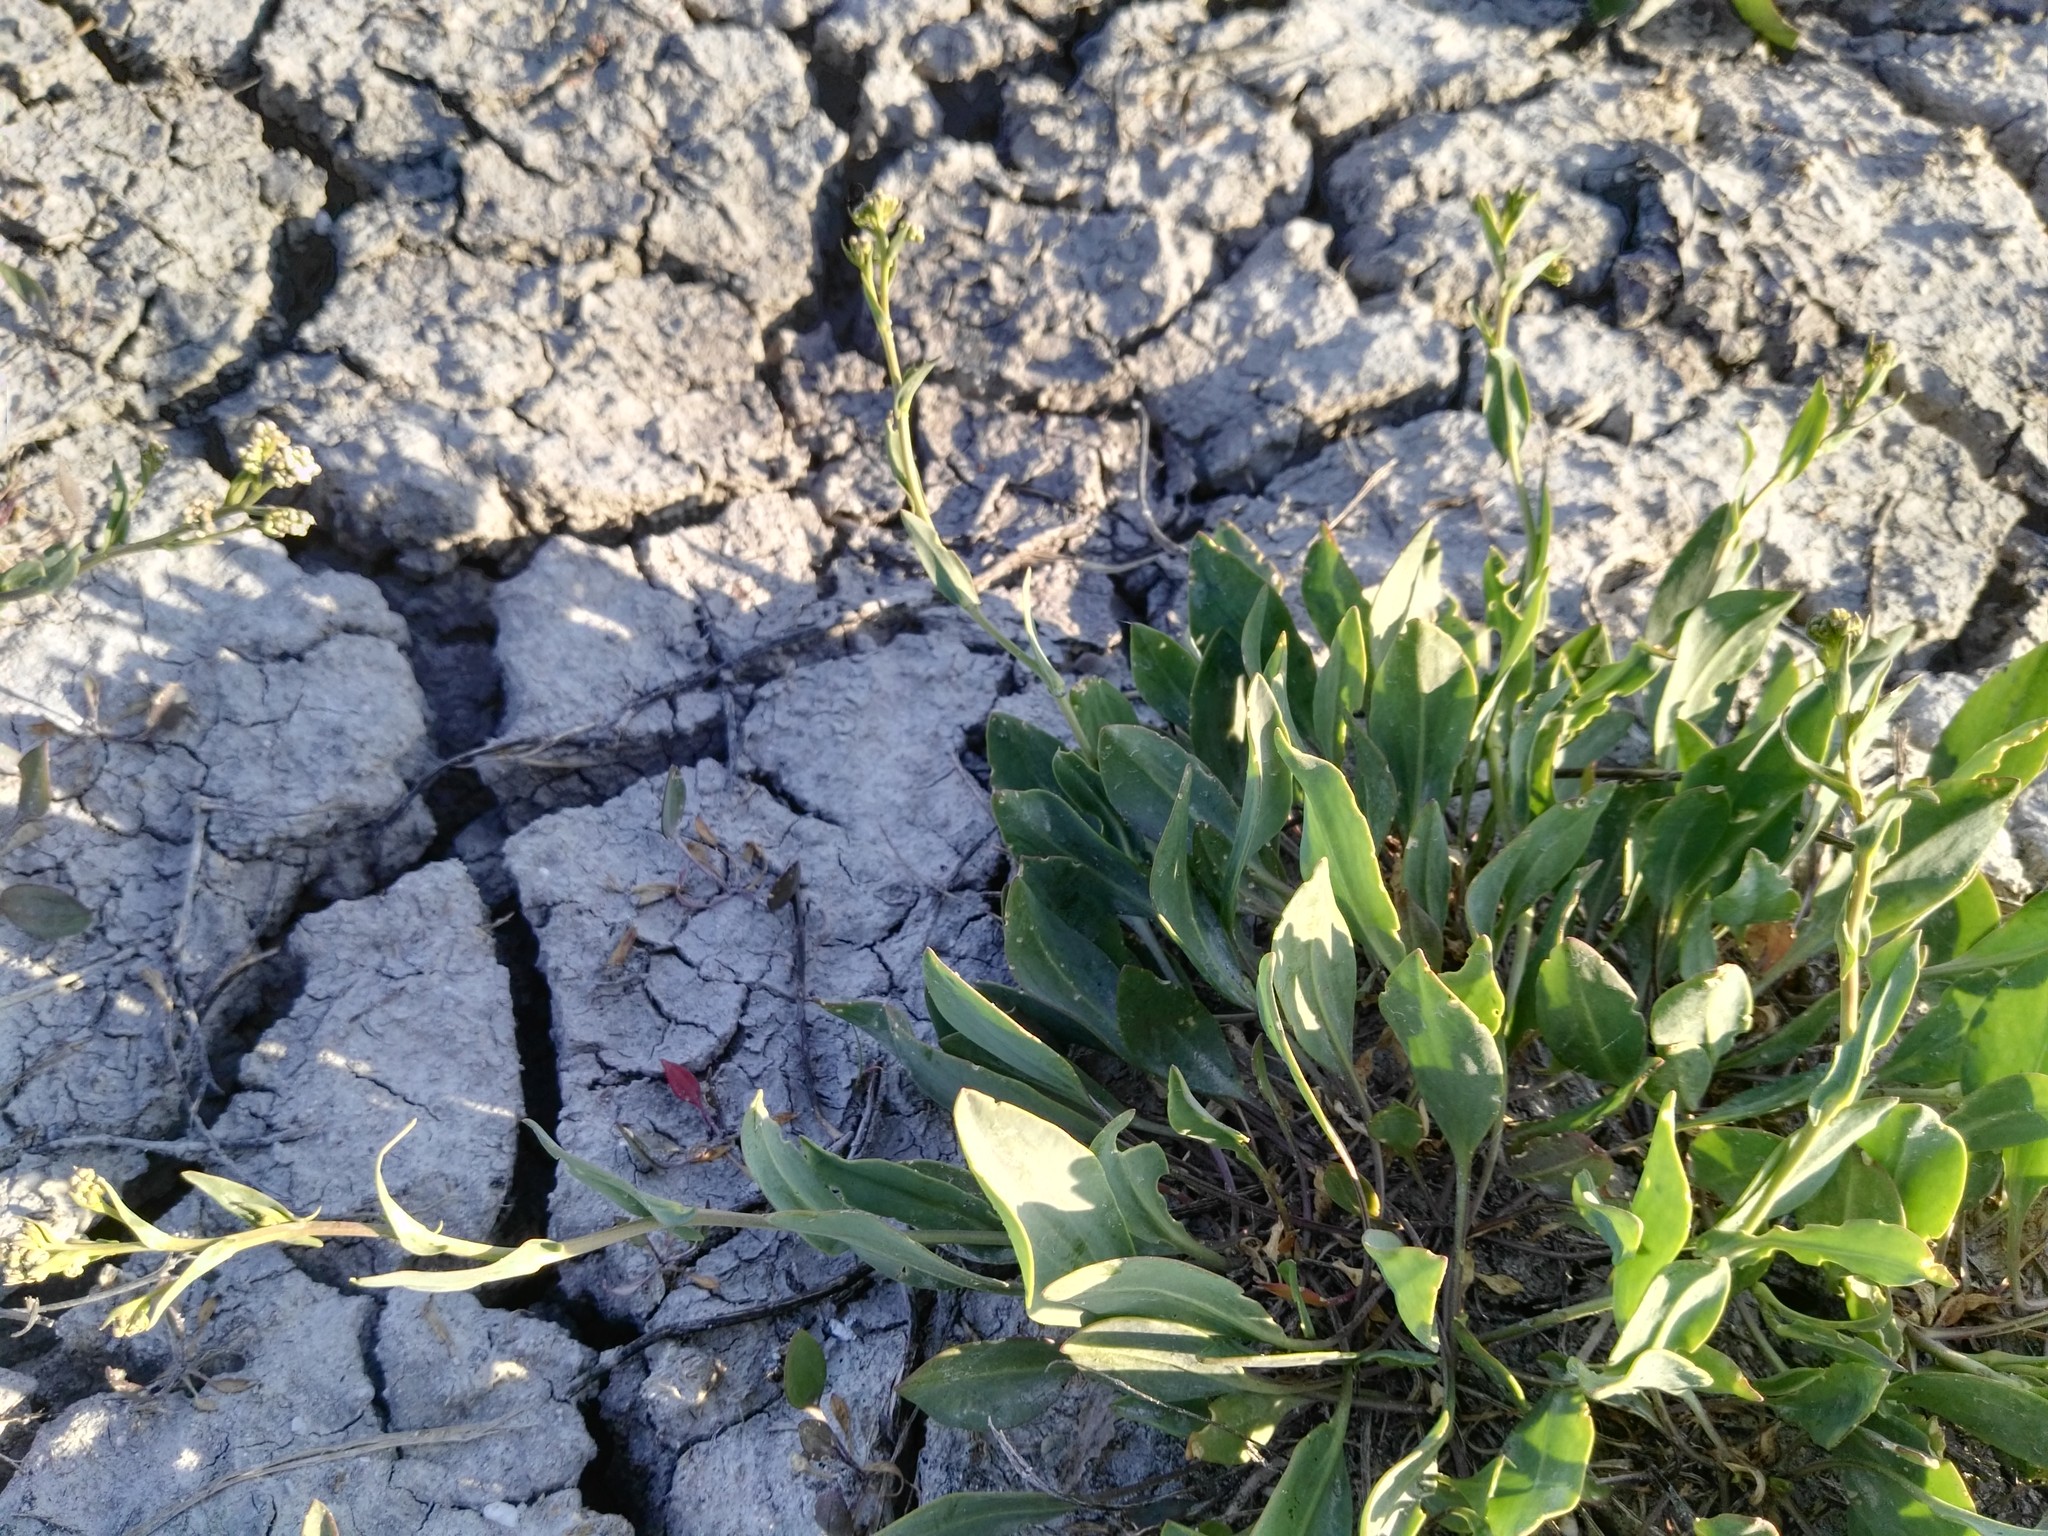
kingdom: Plantae
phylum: Tracheophyta
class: Magnoliopsida
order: Brassicales
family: Brassicaceae
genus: Lepidium
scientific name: Lepidium cartilagineum
